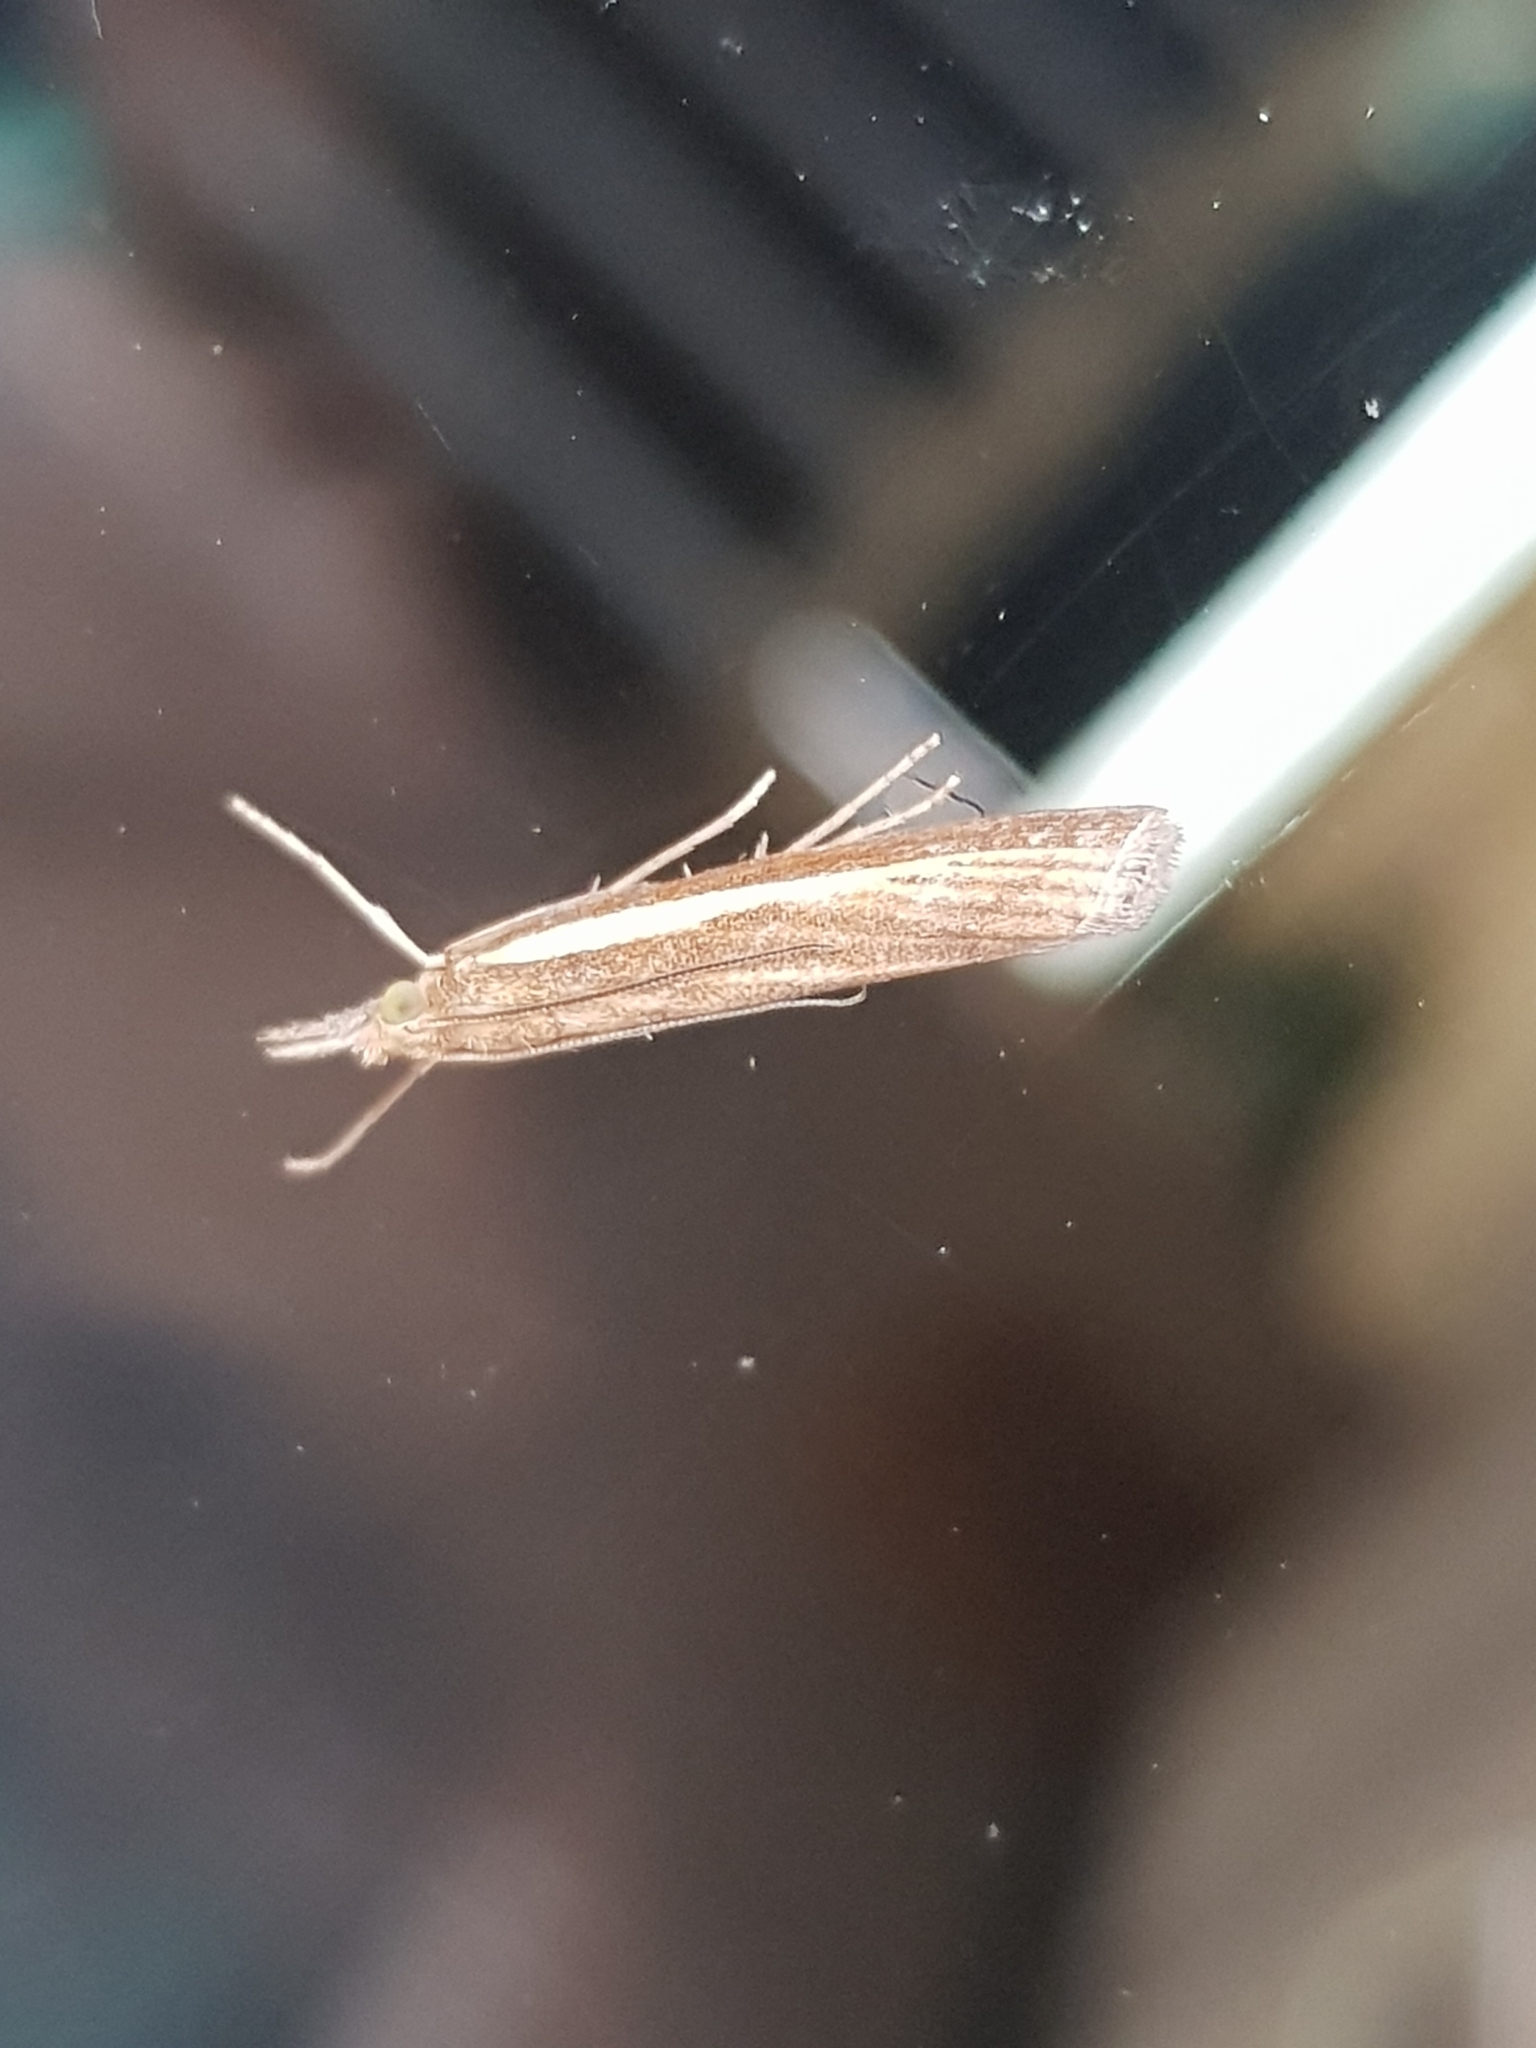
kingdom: Animalia
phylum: Arthropoda
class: Insecta
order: Lepidoptera
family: Crambidae
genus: Agriphila
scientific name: Agriphila tristellus
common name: Common grass-veneer
